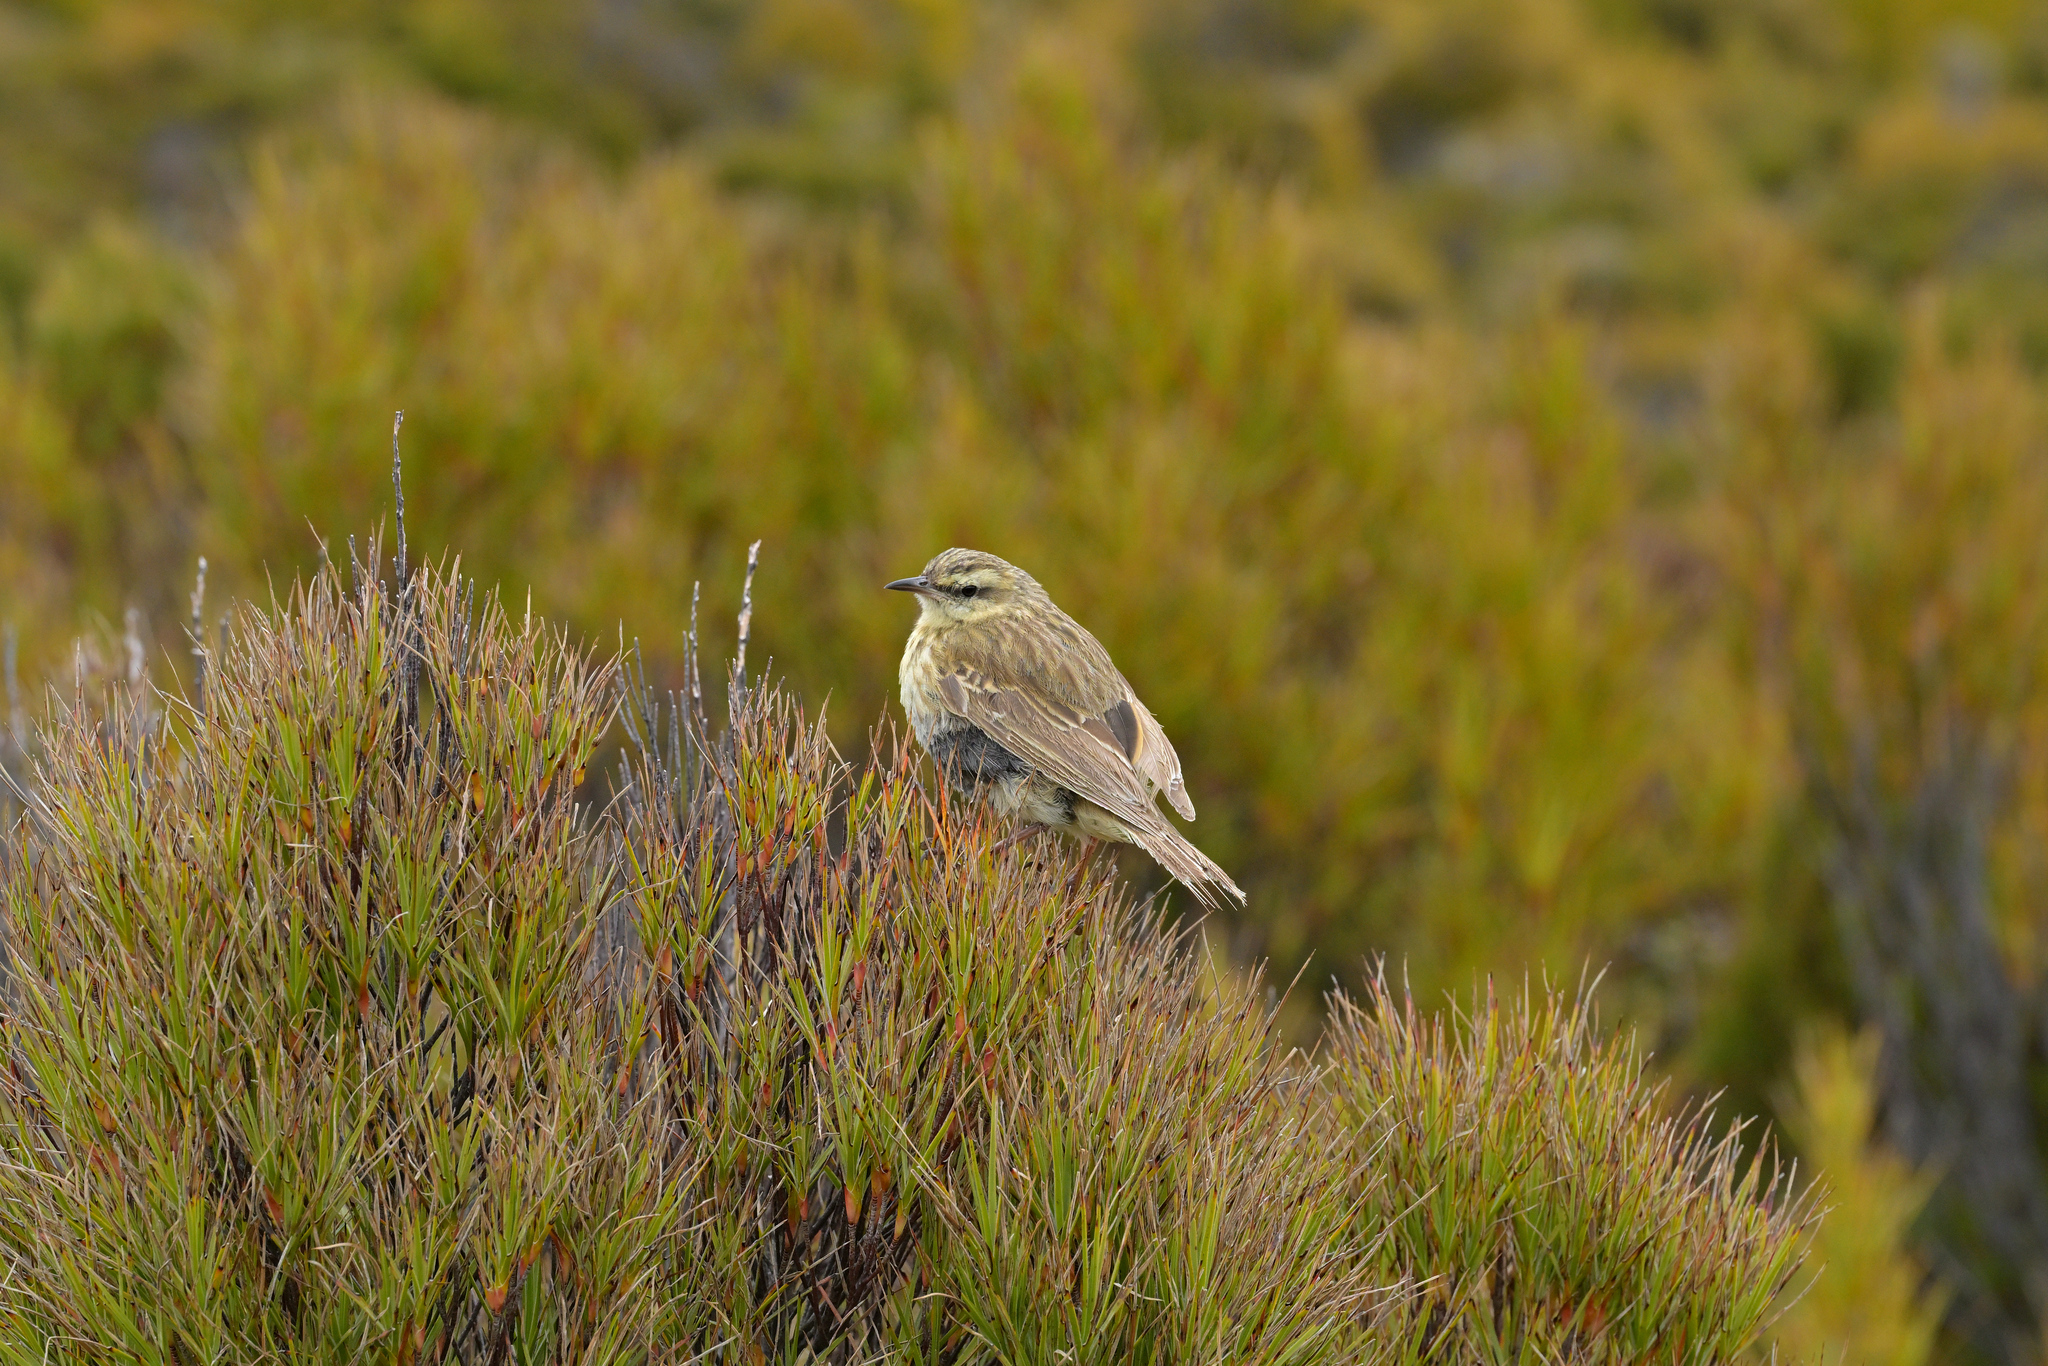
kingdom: Animalia
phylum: Chordata
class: Aves
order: Passeriformes
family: Motacillidae
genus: Anthus
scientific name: Anthus novaeseelandiae
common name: New zealand pipit
